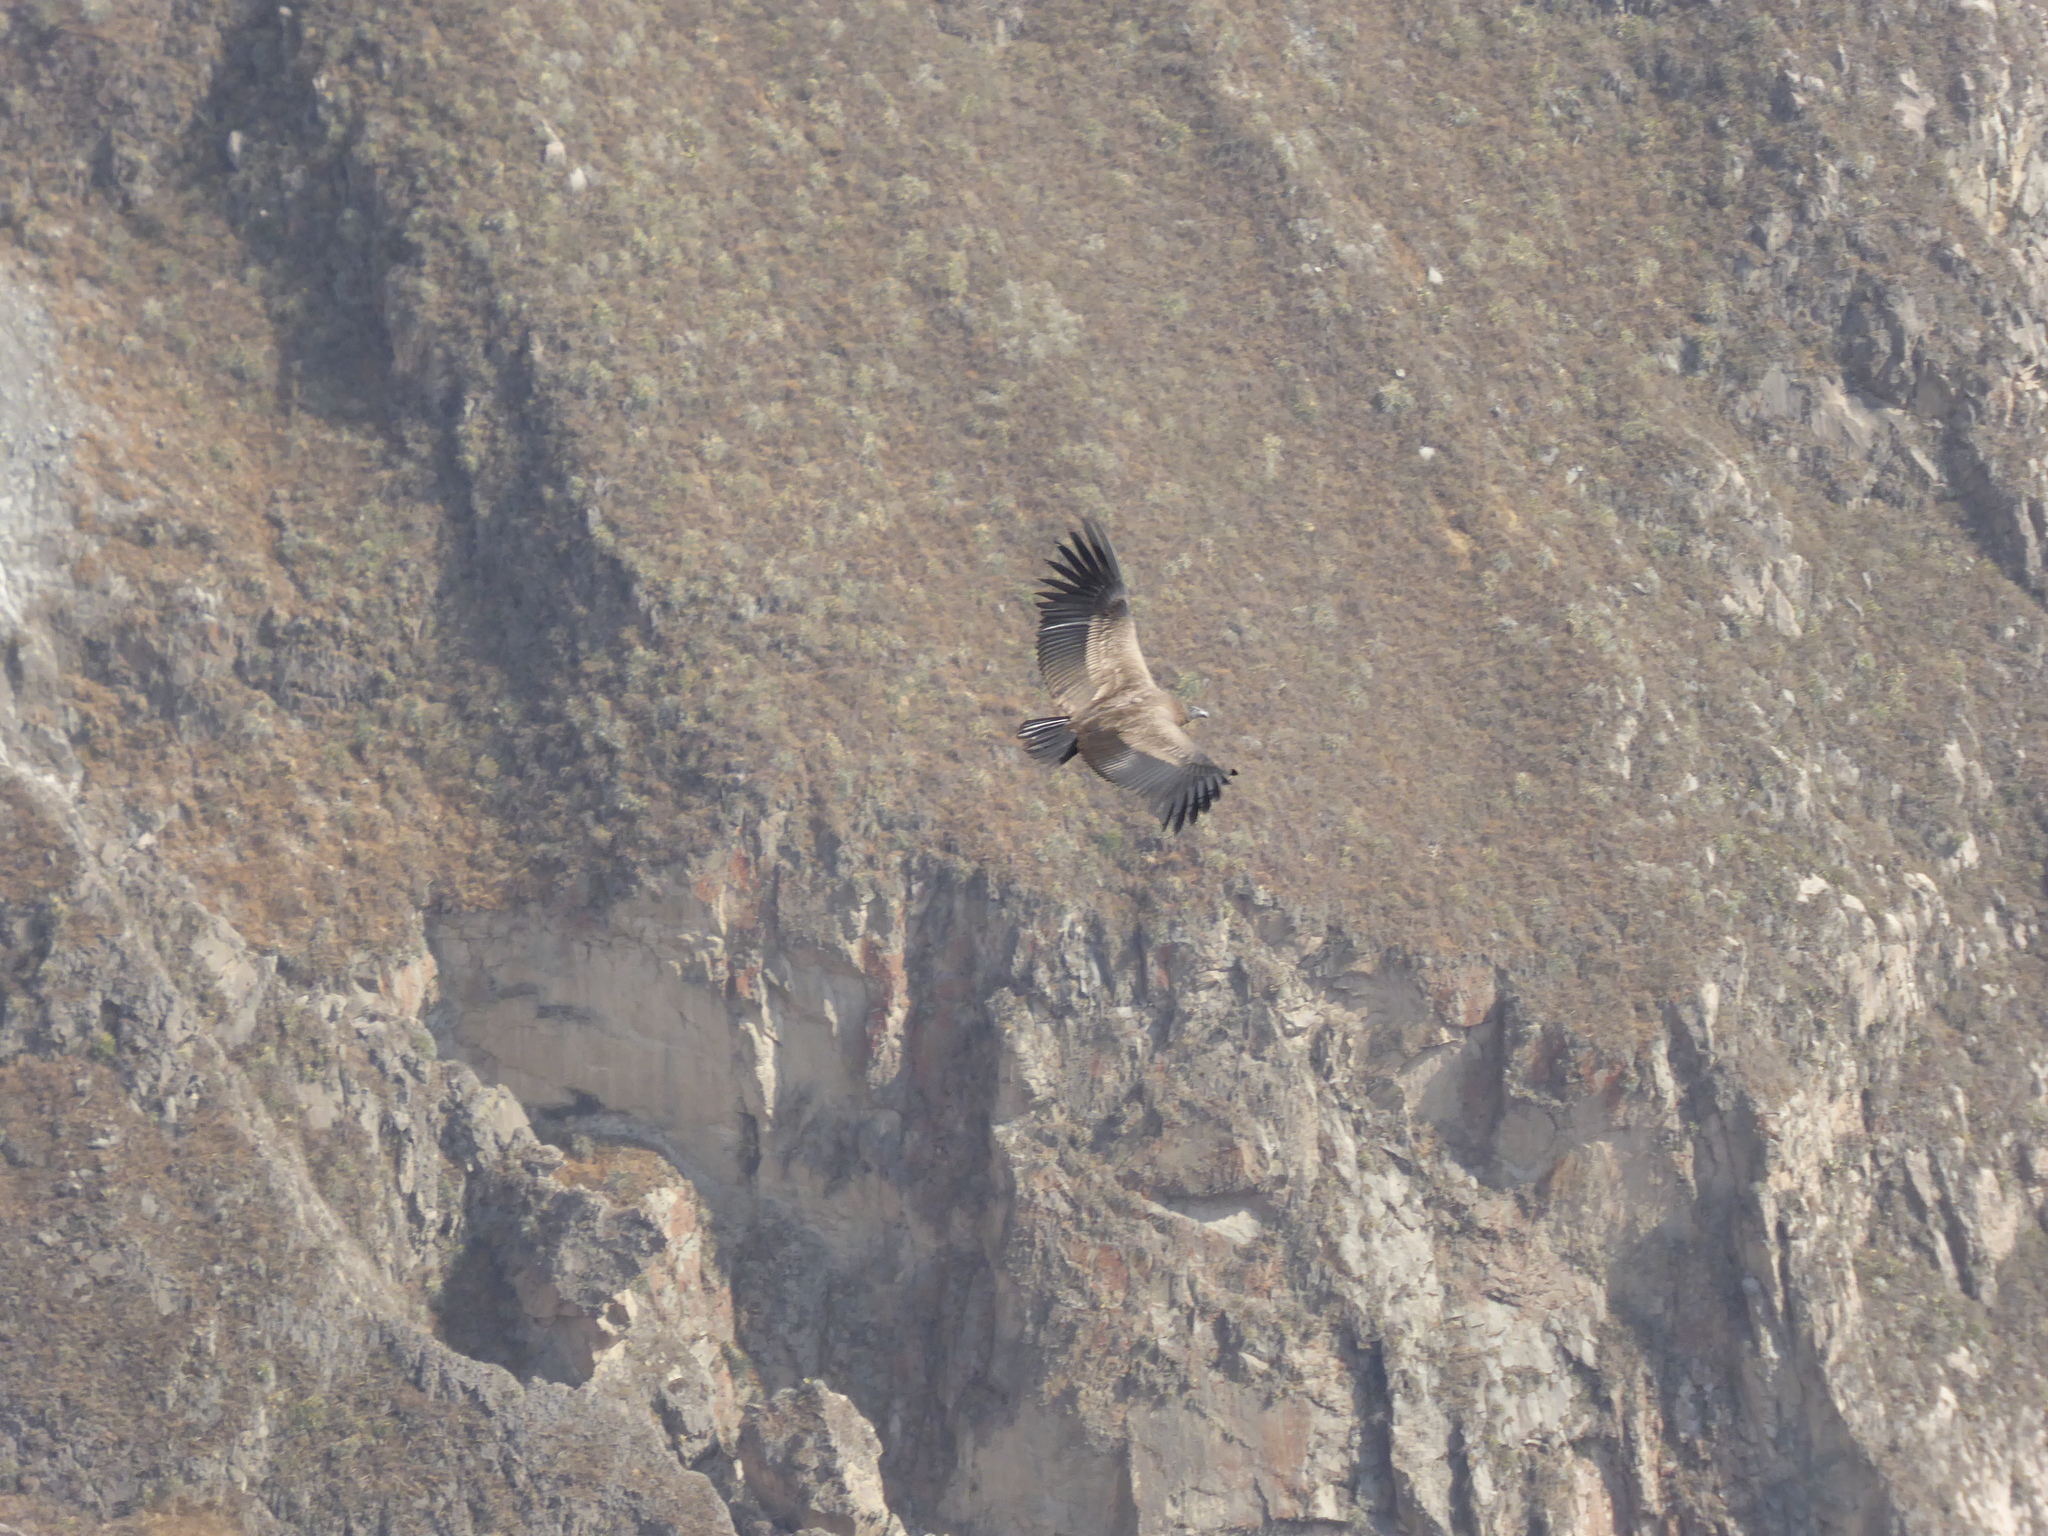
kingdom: Animalia
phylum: Chordata
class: Aves
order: Accipitriformes
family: Cathartidae
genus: Vultur
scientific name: Vultur gryphus
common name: Andean condor
